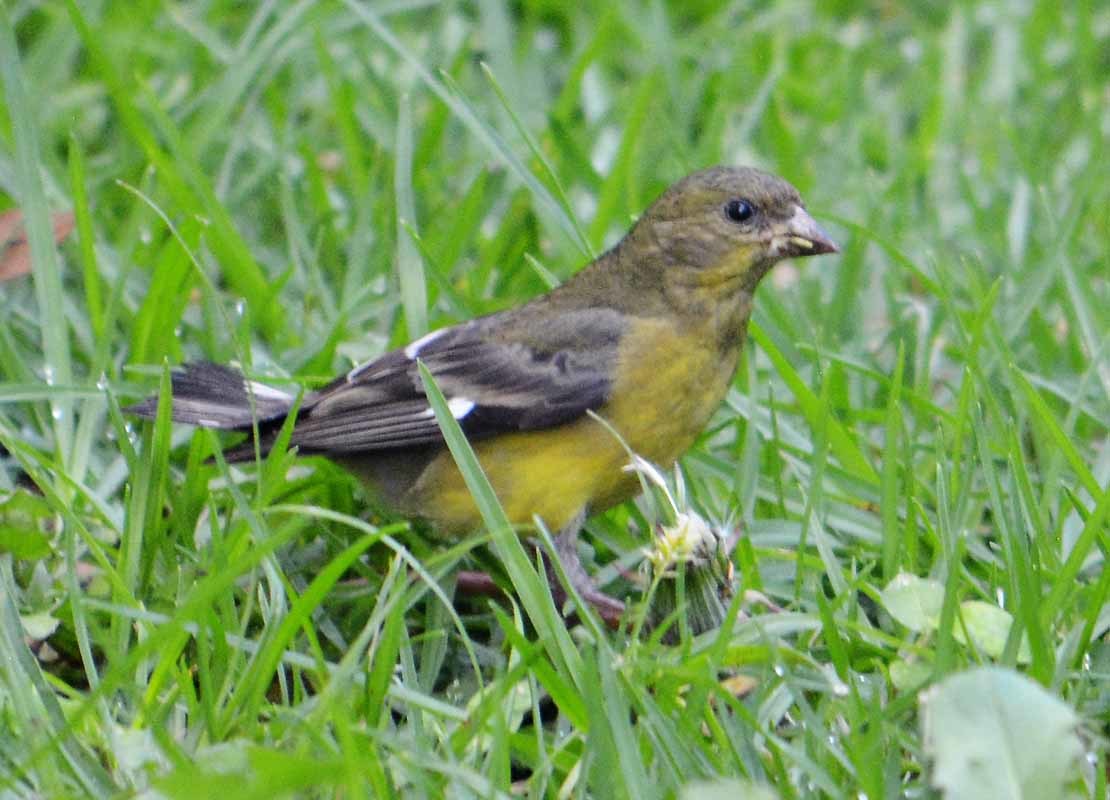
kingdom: Animalia
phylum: Chordata
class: Aves
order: Passeriformes
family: Fringillidae
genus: Spinus
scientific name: Spinus psaltria
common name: Lesser goldfinch
